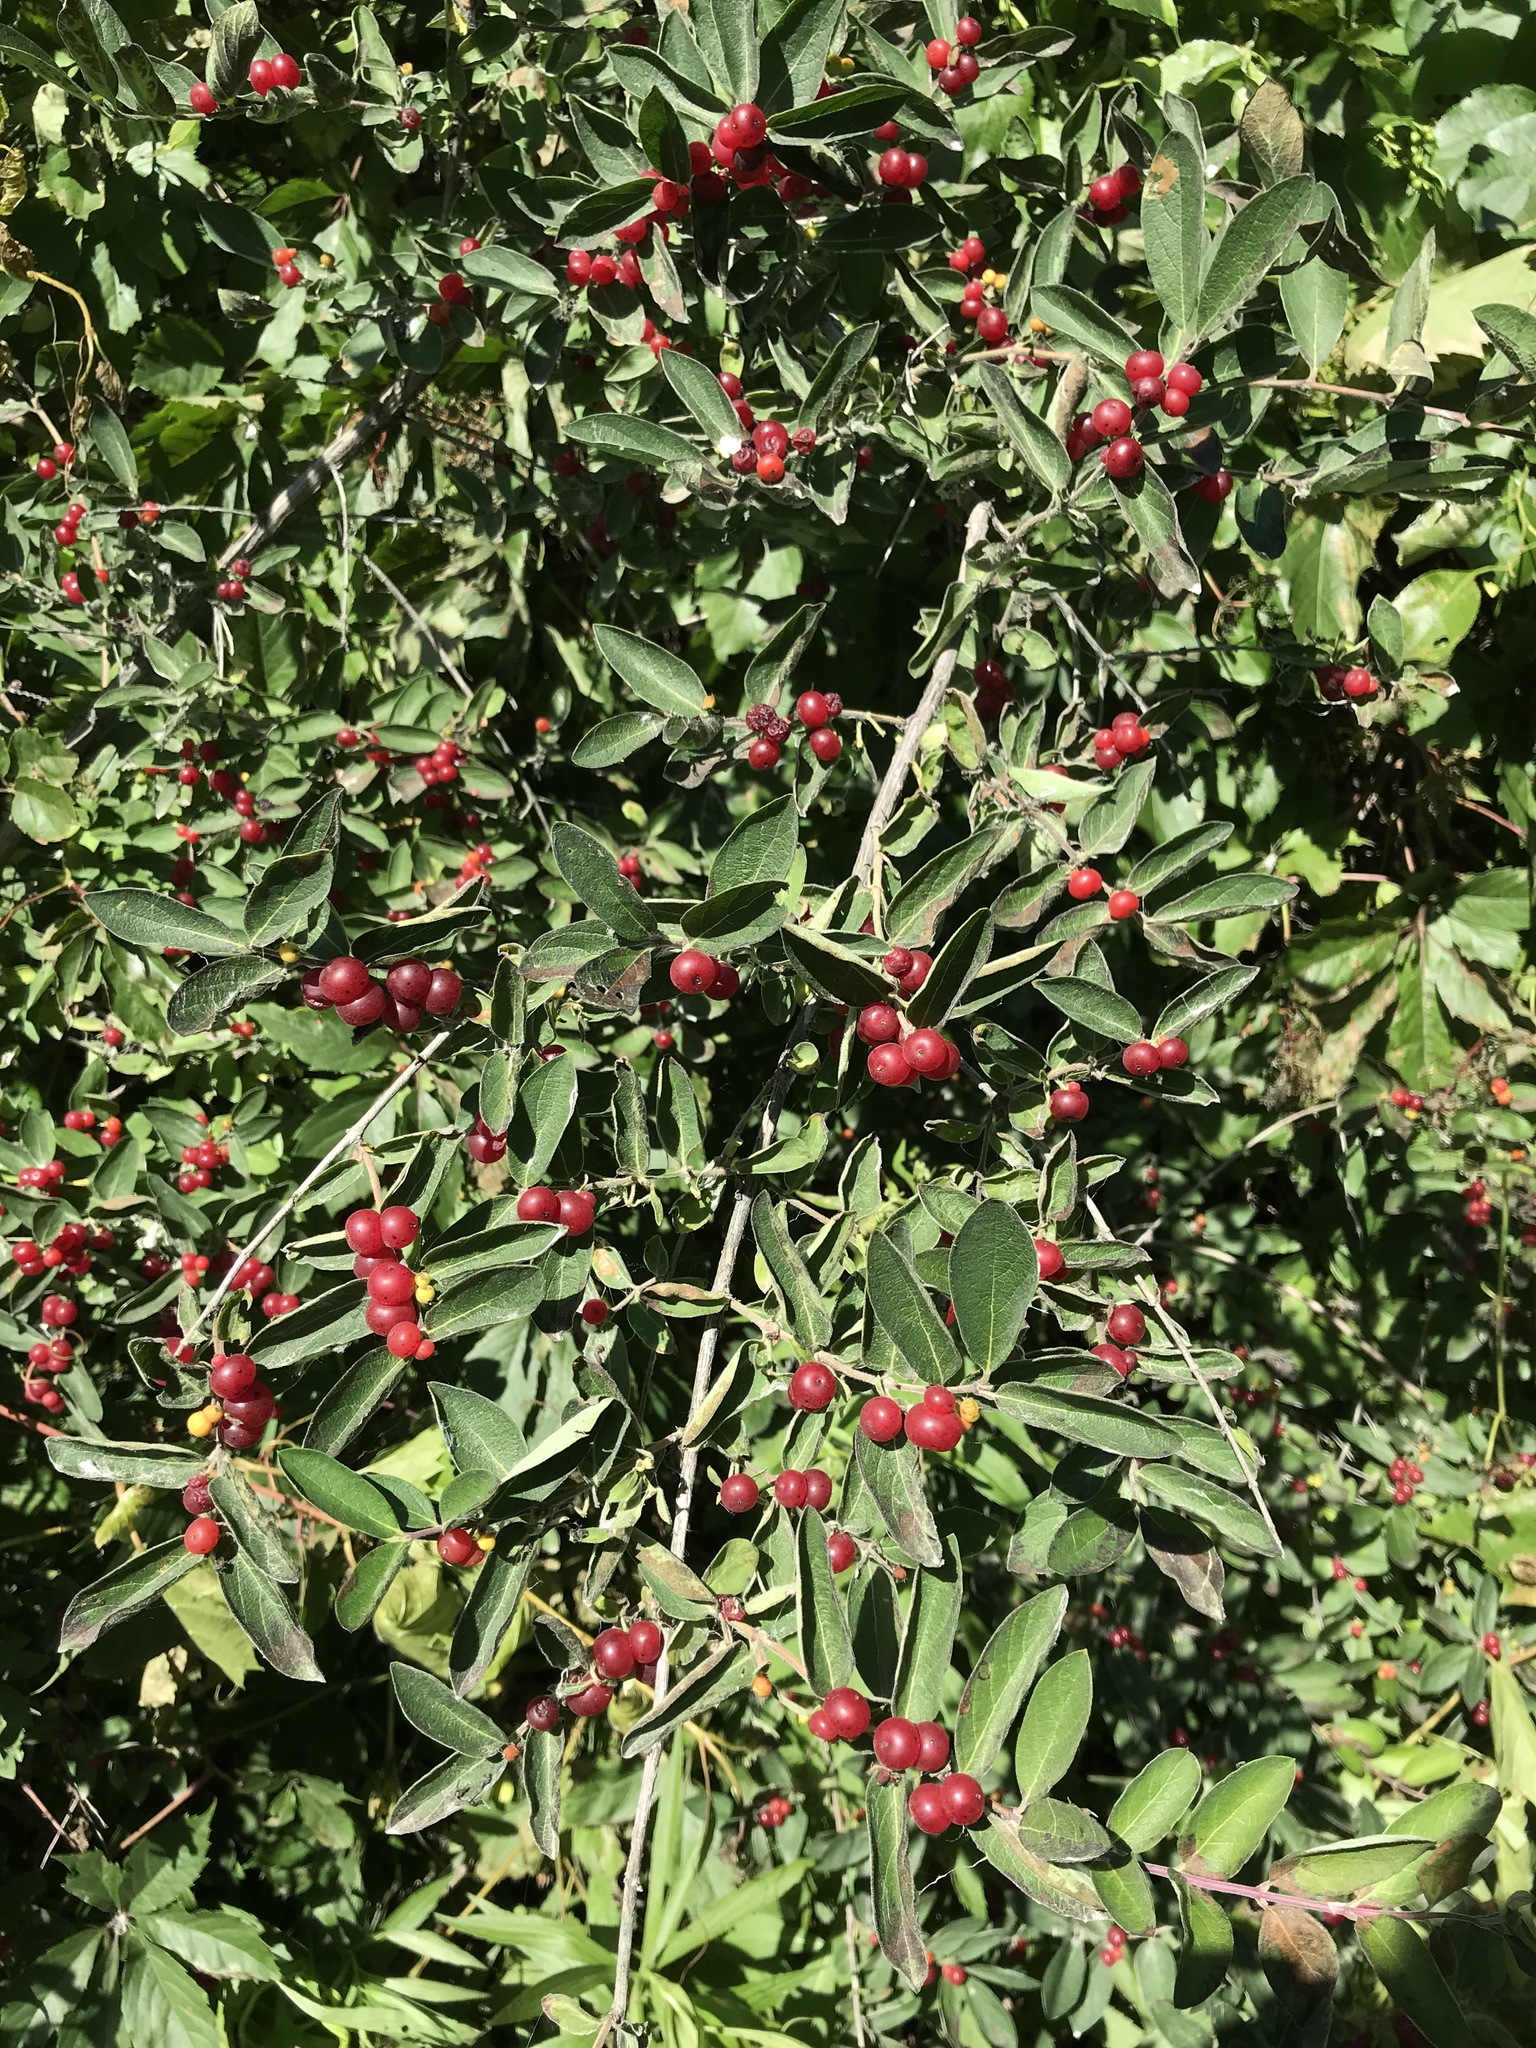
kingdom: Plantae
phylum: Tracheophyta
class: Magnoliopsida
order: Dipsacales
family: Caprifoliaceae
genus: Lonicera
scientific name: Lonicera morrowii
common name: Morrow's honeysuckle
